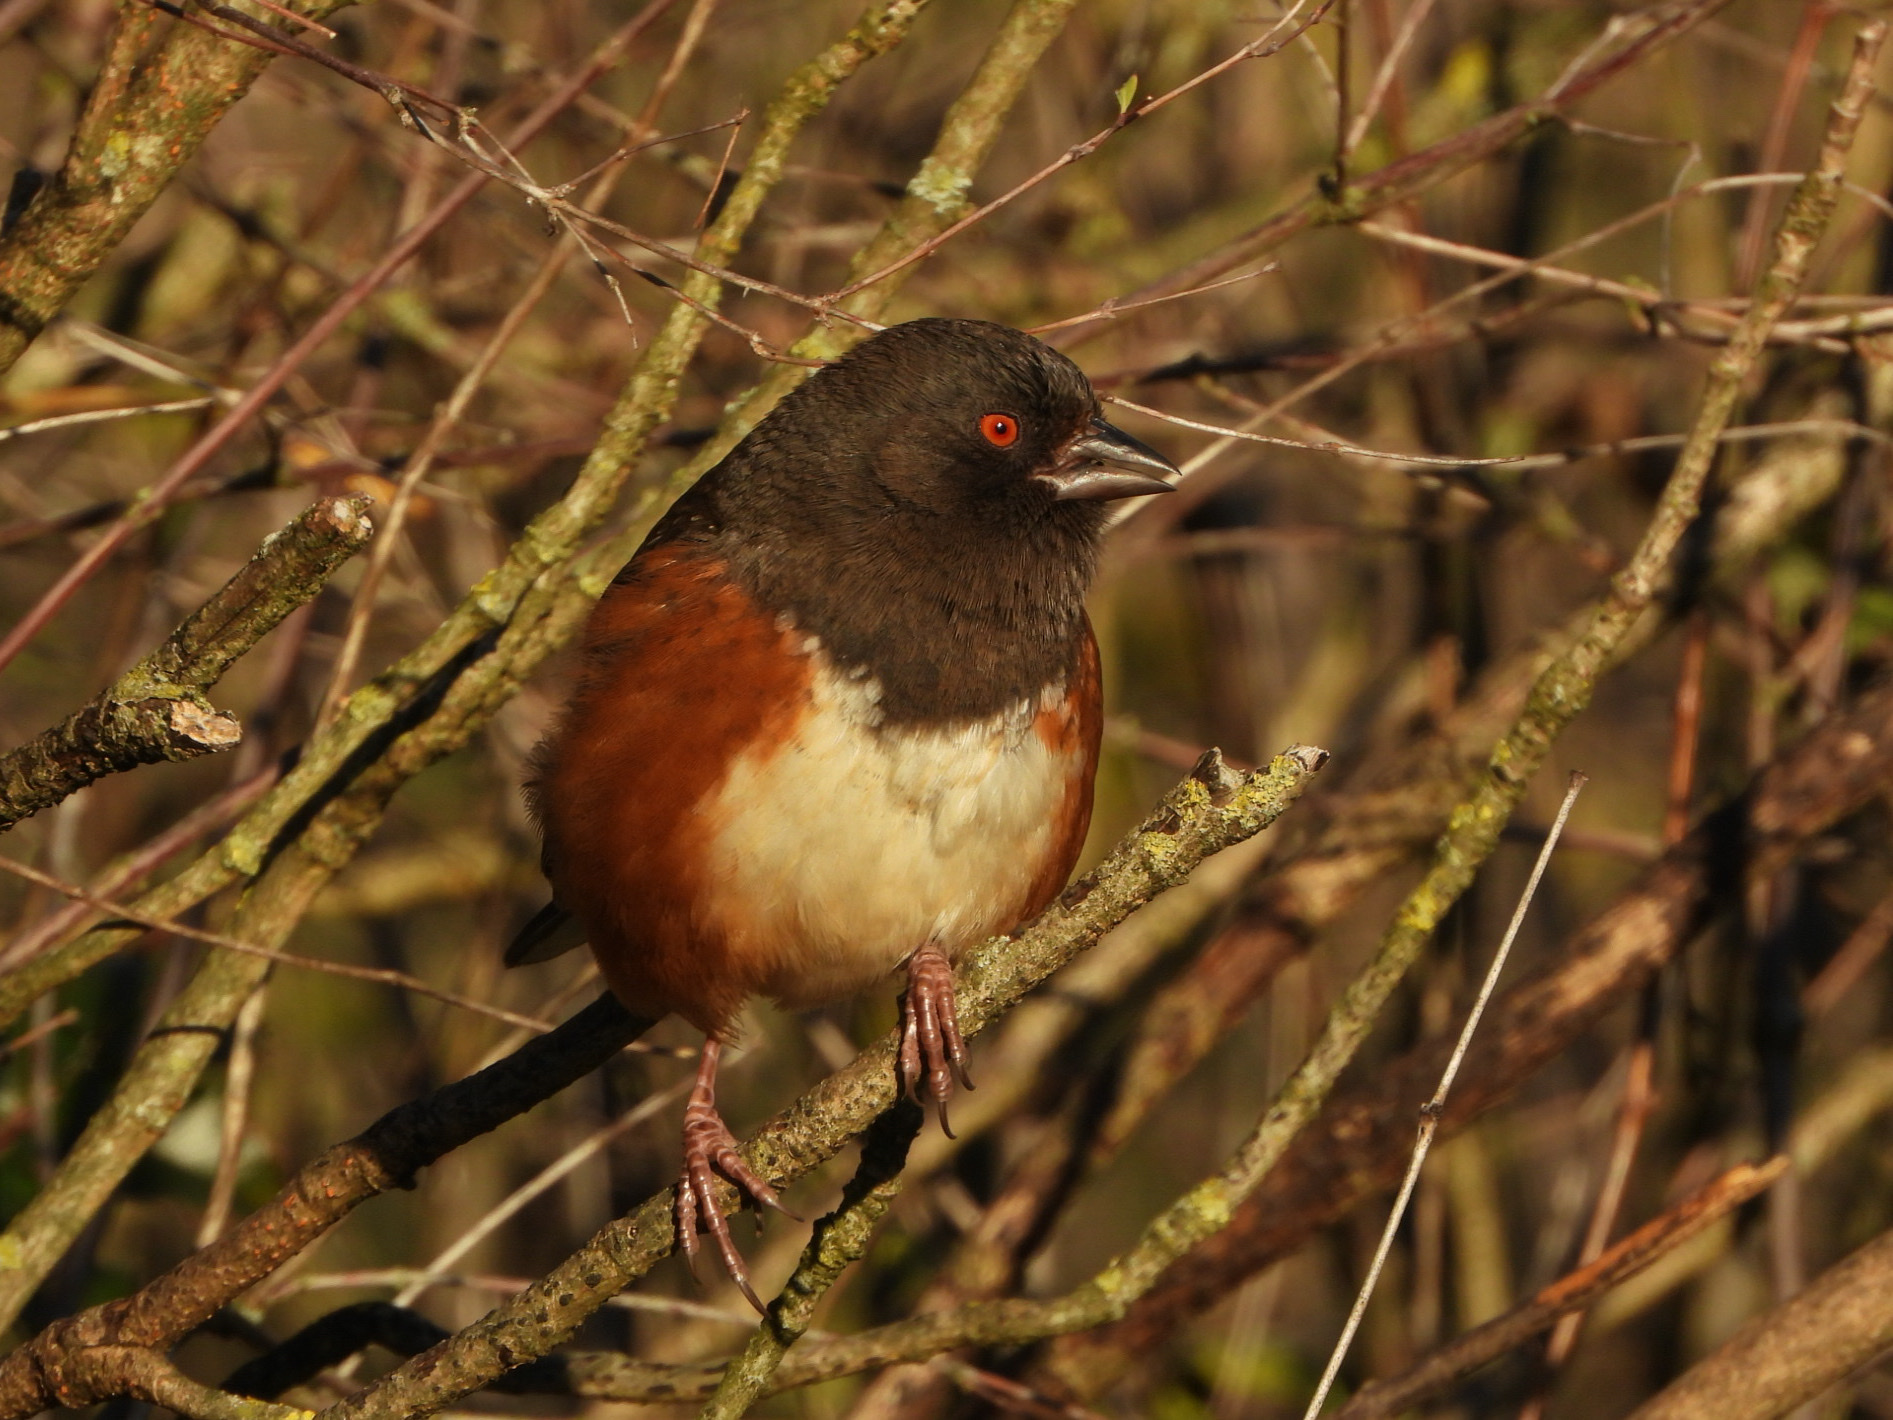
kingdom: Animalia
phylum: Chordata
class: Aves
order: Passeriformes
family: Passerellidae
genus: Pipilo
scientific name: Pipilo maculatus
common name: Spotted towhee
